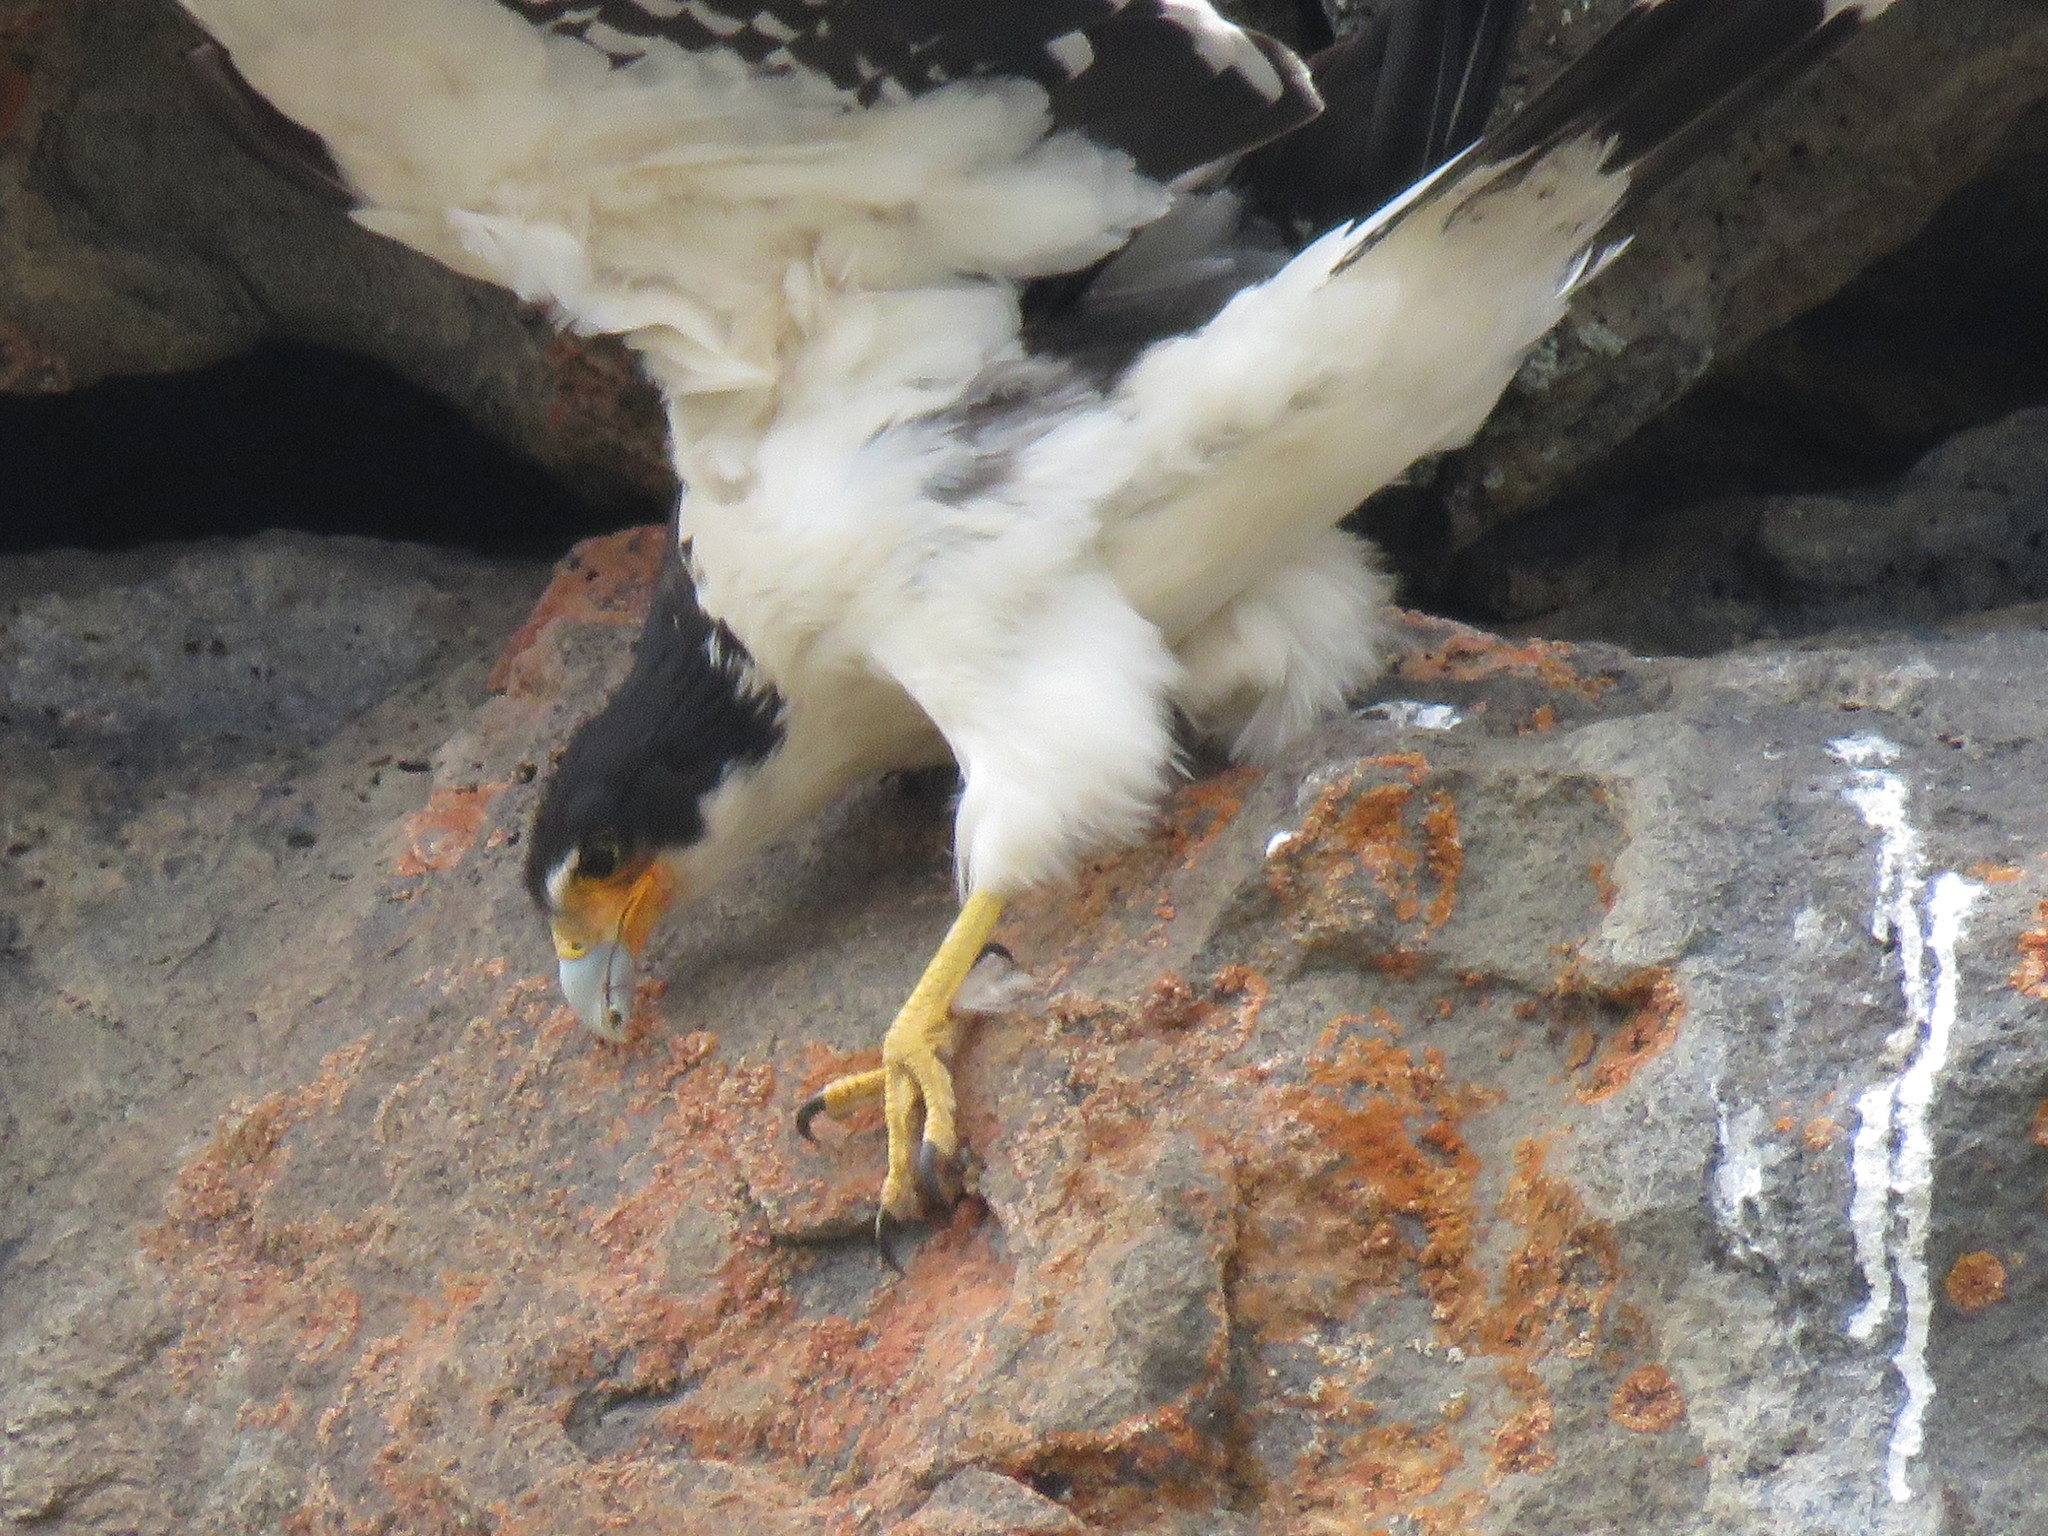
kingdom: Animalia
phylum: Chordata
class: Aves
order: Falconiformes
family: Falconidae
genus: Daptrius
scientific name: Daptrius
